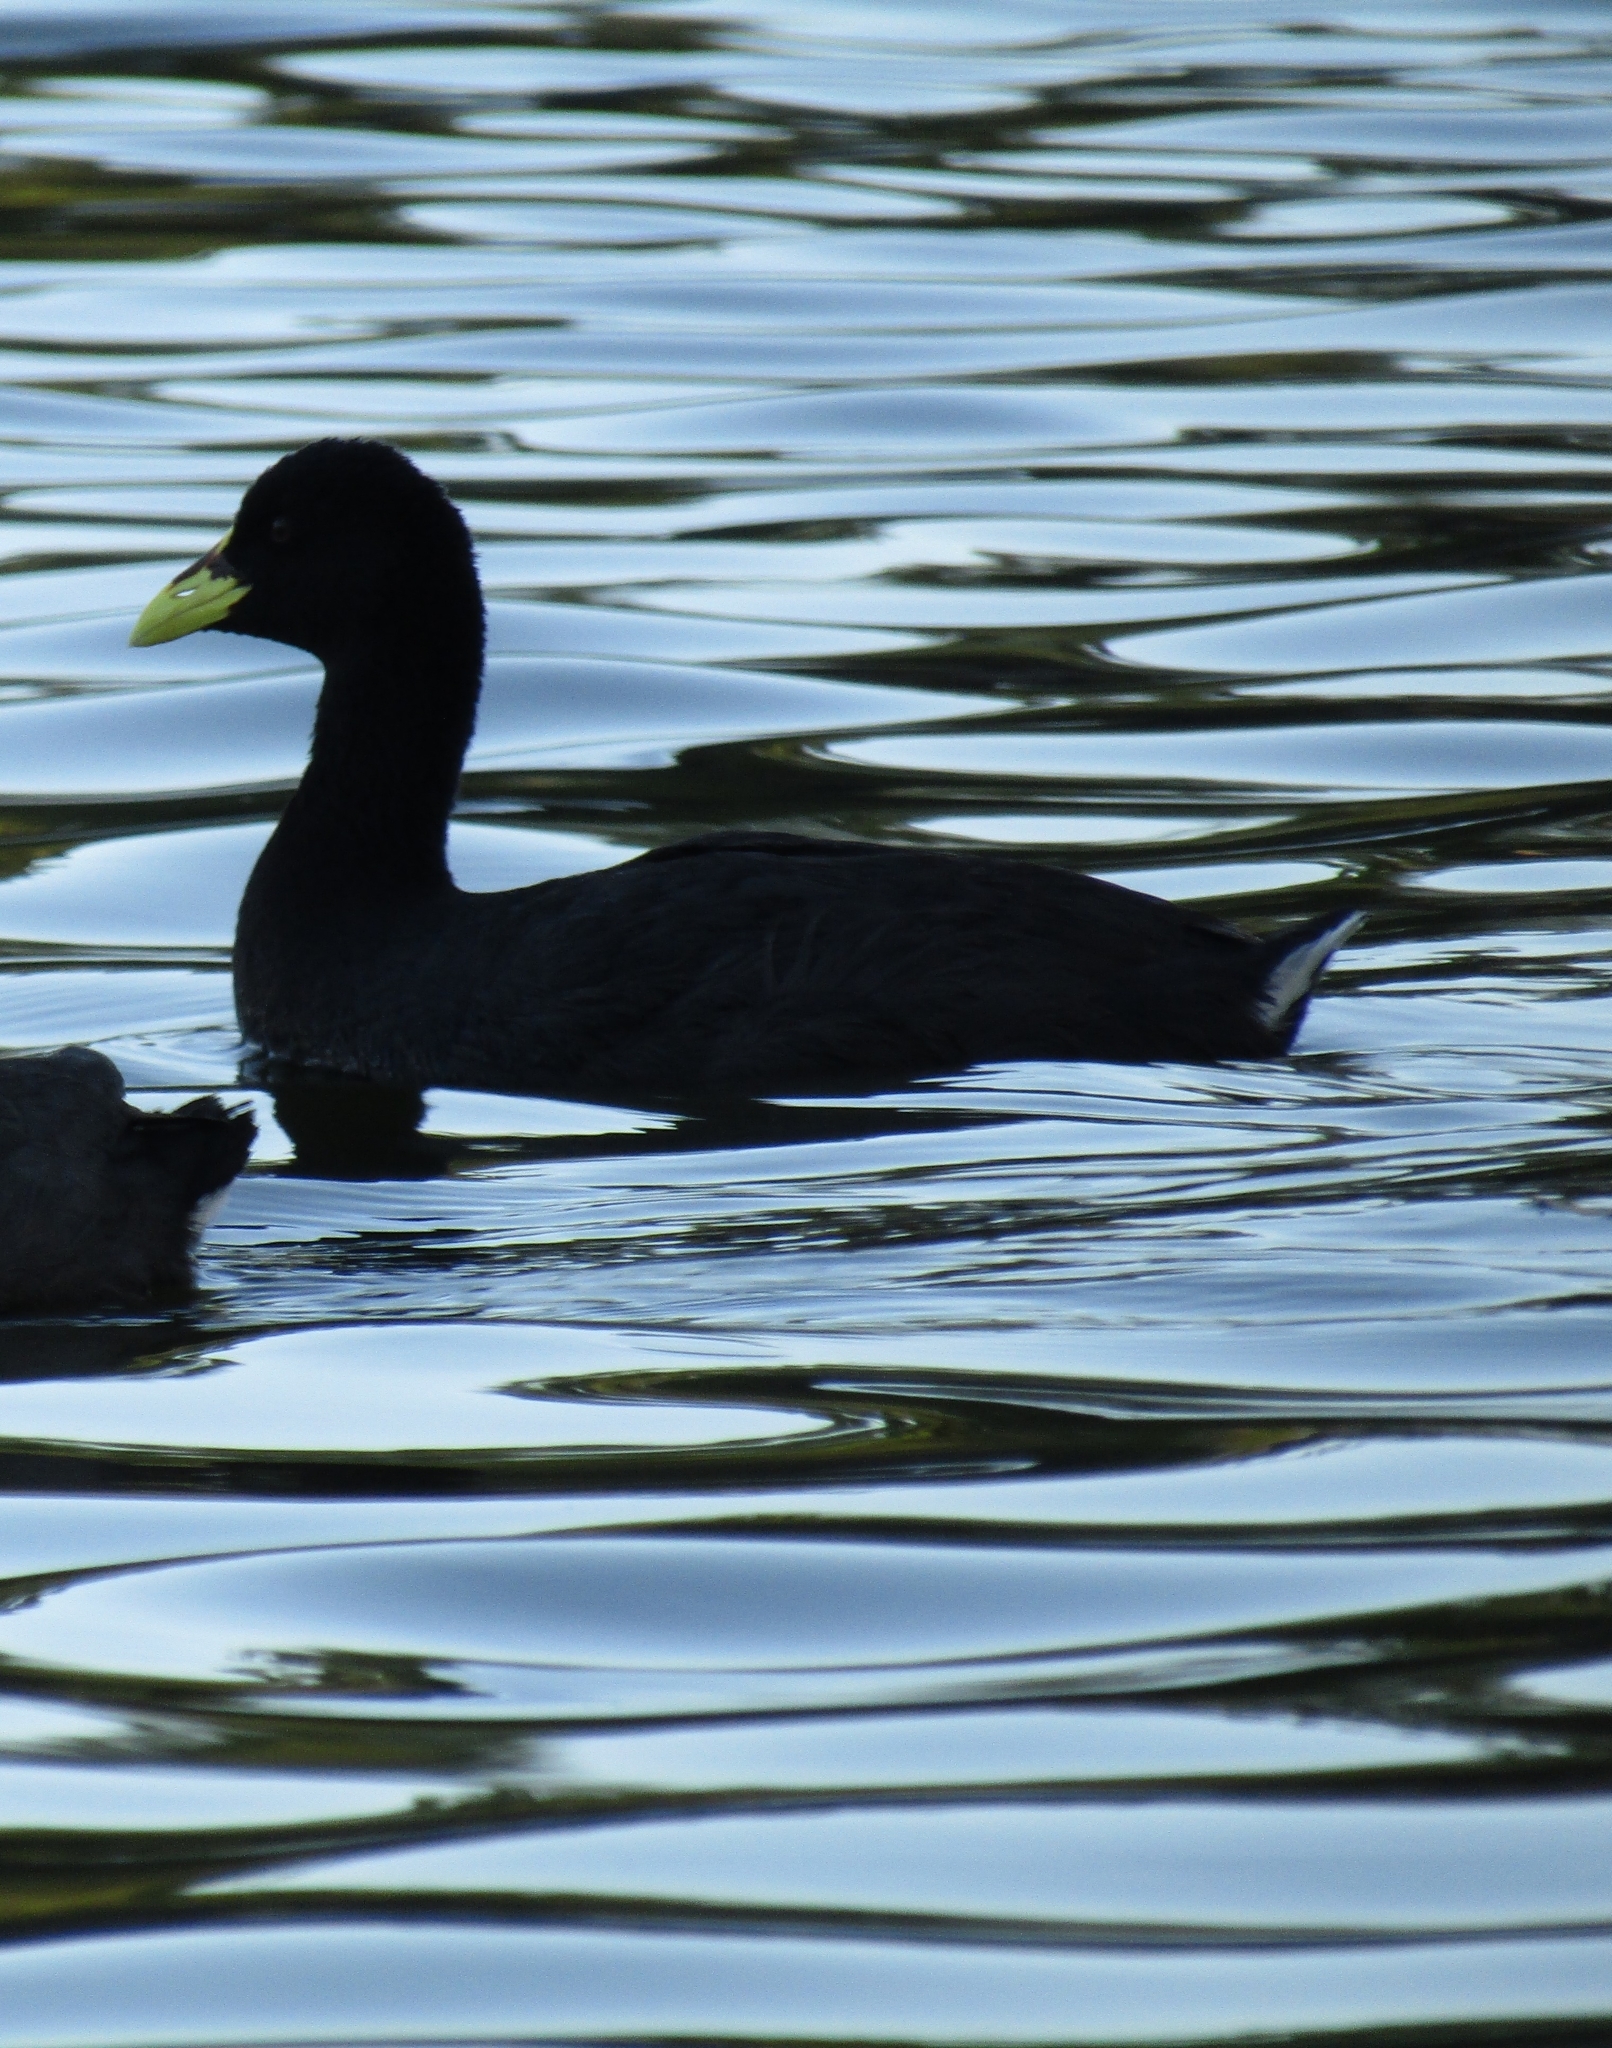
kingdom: Animalia
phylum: Chordata
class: Aves
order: Gruiformes
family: Rallidae
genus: Fulica
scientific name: Fulica armillata
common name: Red-gartered coot
